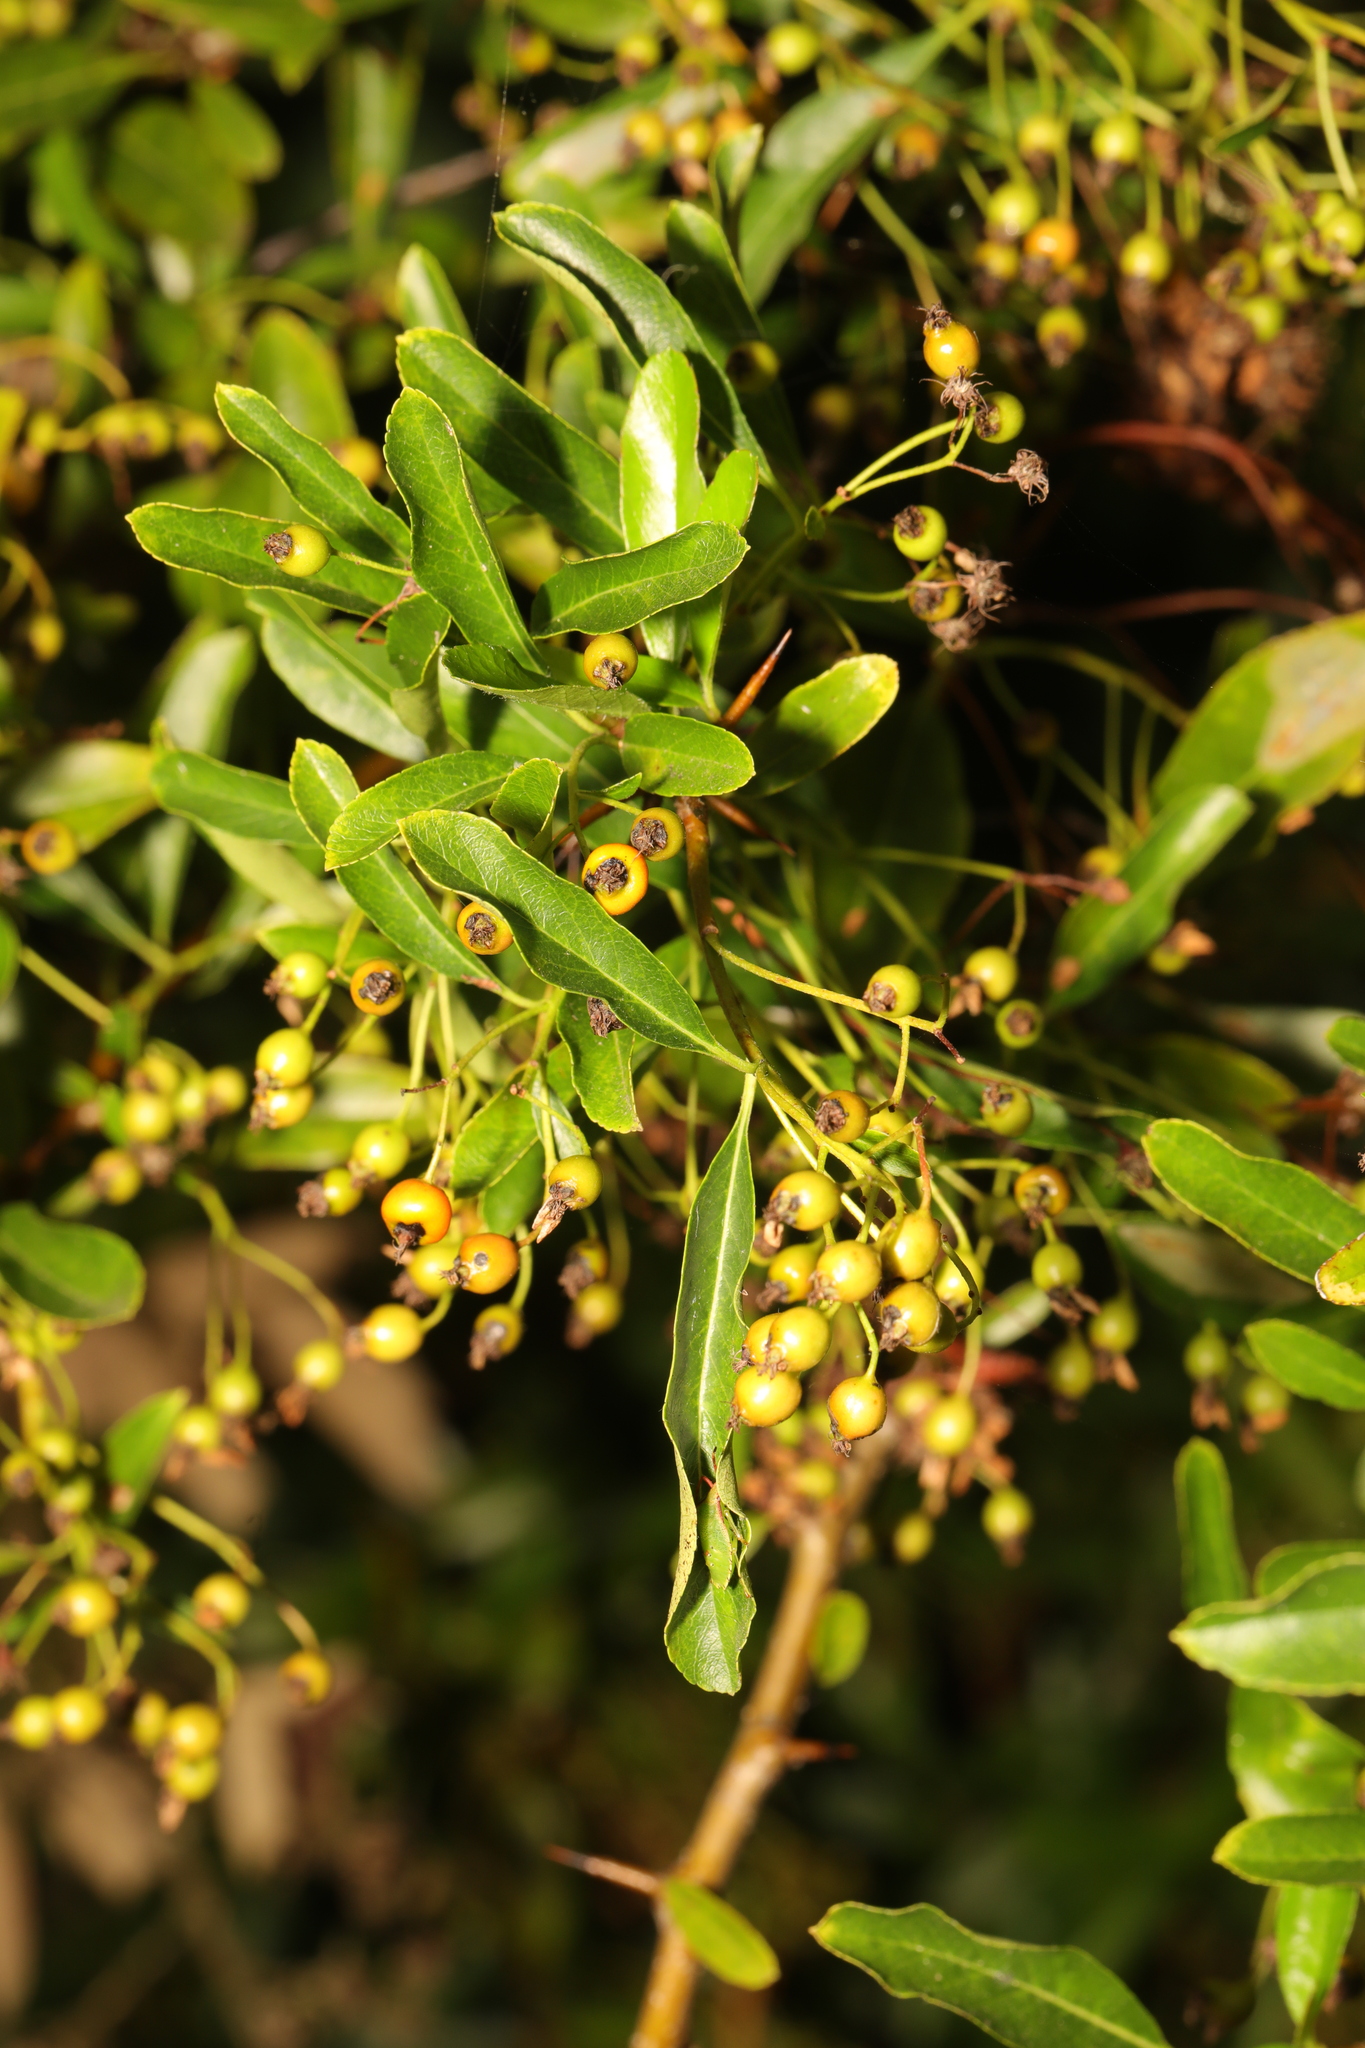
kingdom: Plantae
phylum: Tracheophyta
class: Magnoliopsida
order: Rosales
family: Rosaceae
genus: Pyracantha
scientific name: Pyracantha coccinea
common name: Firethorn
